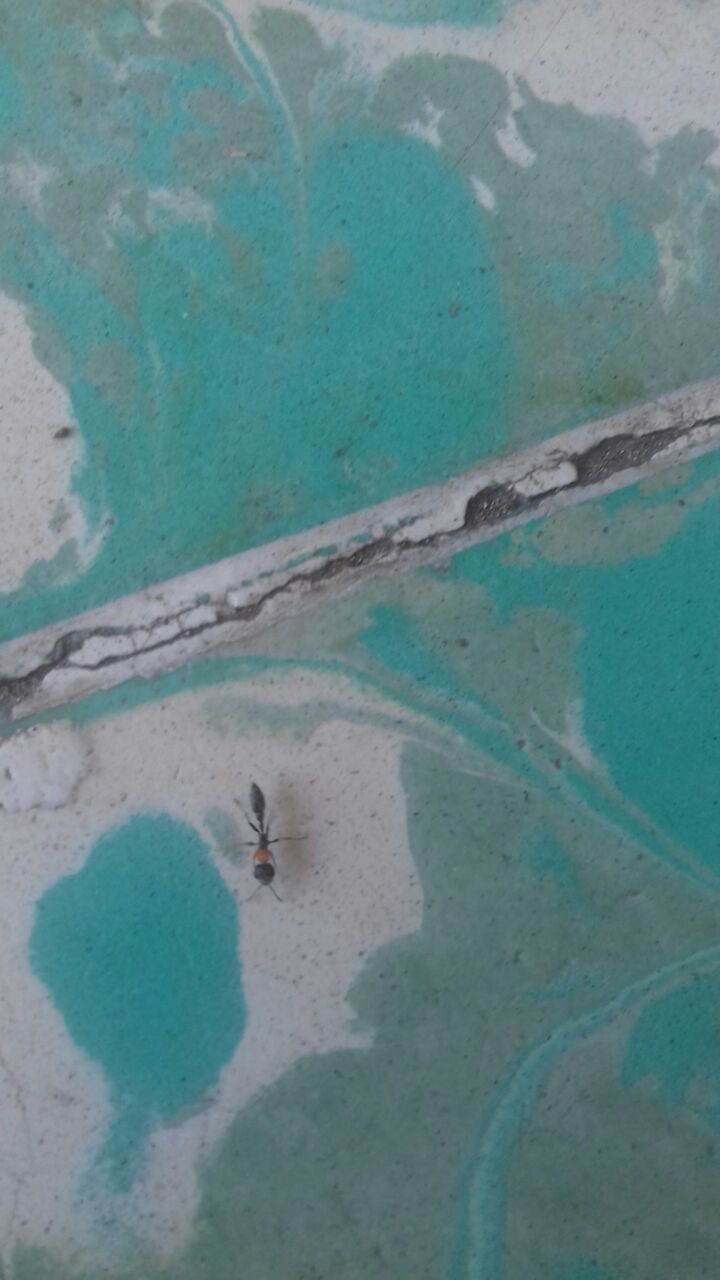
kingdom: Animalia
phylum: Arthropoda
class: Insecta
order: Hymenoptera
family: Formicidae
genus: Pseudomyrmex
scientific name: Pseudomyrmex gracilis
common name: Graceful twig ant
